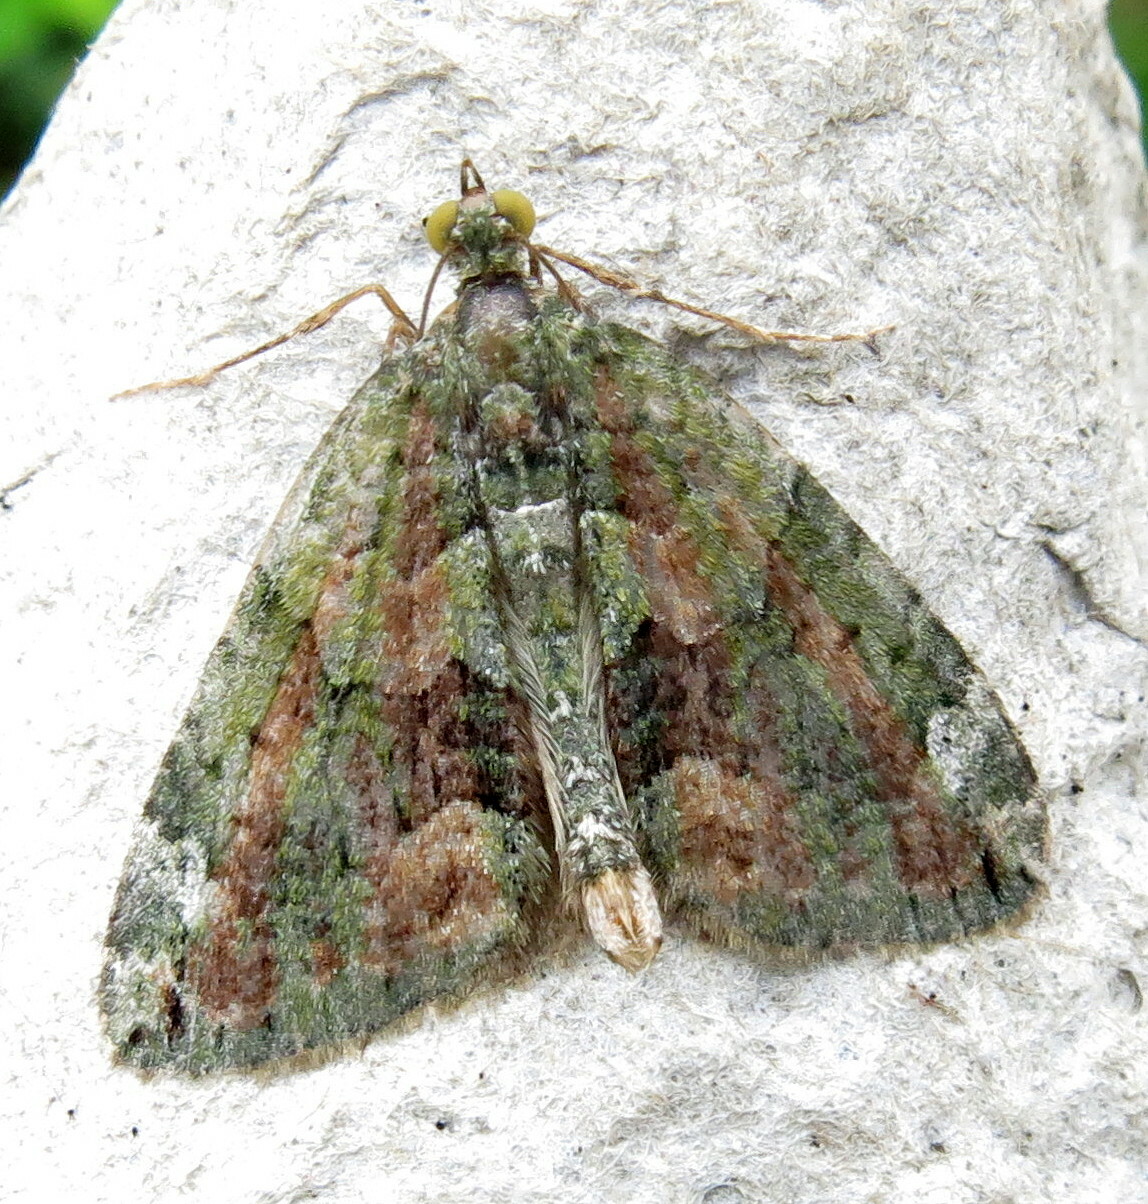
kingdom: Animalia
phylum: Arthropoda
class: Insecta
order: Lepidoptera
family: Geometridae
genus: Chloroclysta
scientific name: Chloroclysta siterata
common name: Red-green carpet
